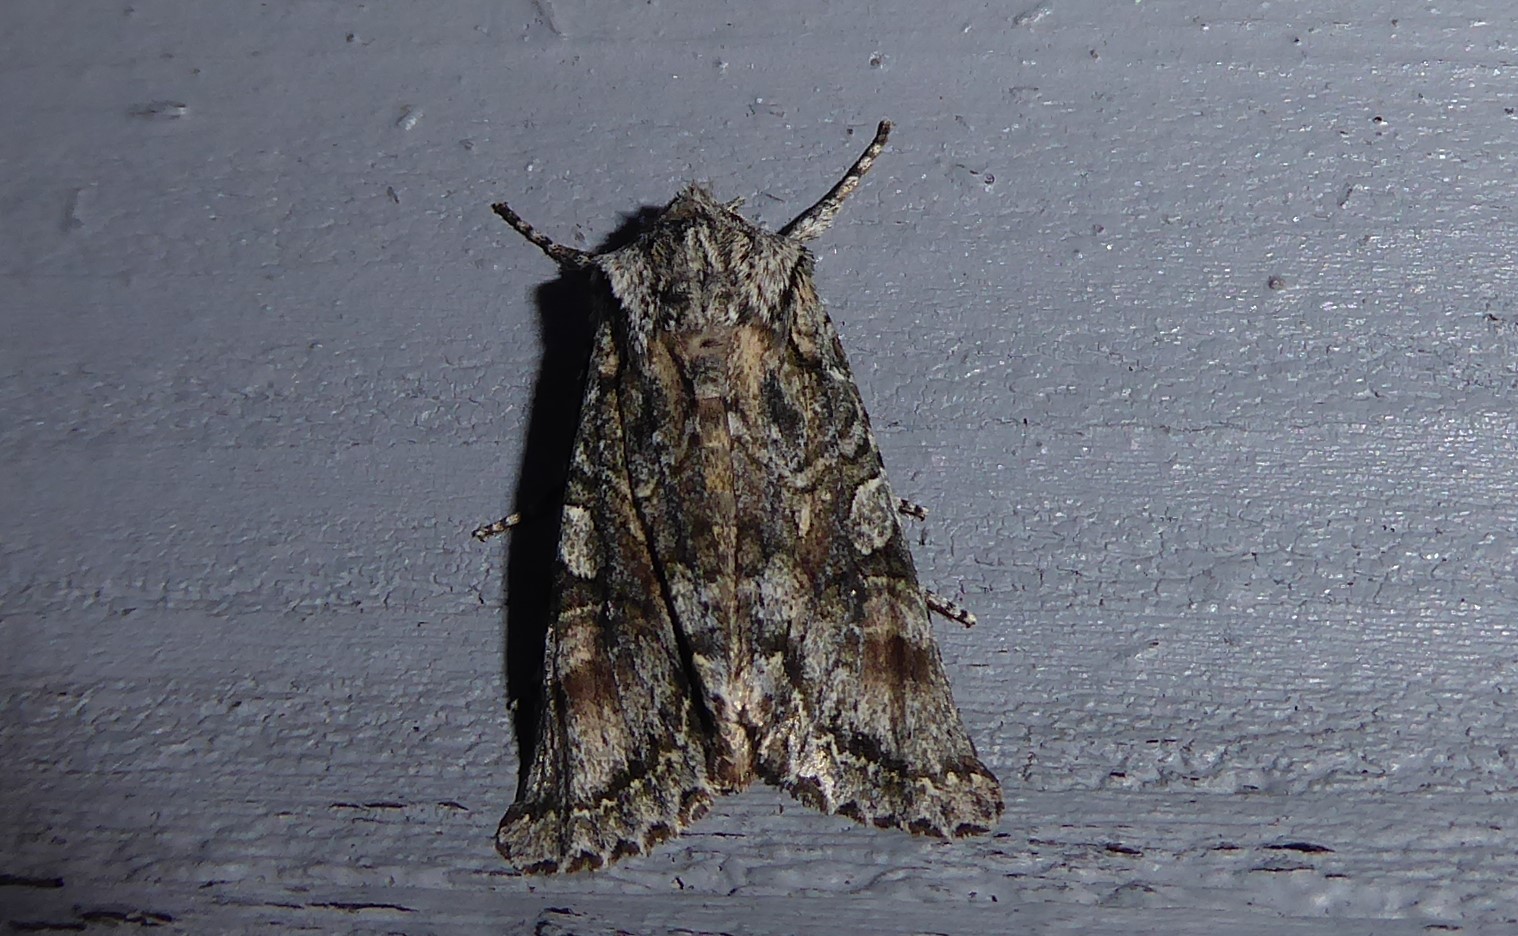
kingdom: Animalia
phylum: Arthropoda
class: Insecta
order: Lepidoptera
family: Noctuidae
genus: Ichneutica
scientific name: Ichneutica mutans
